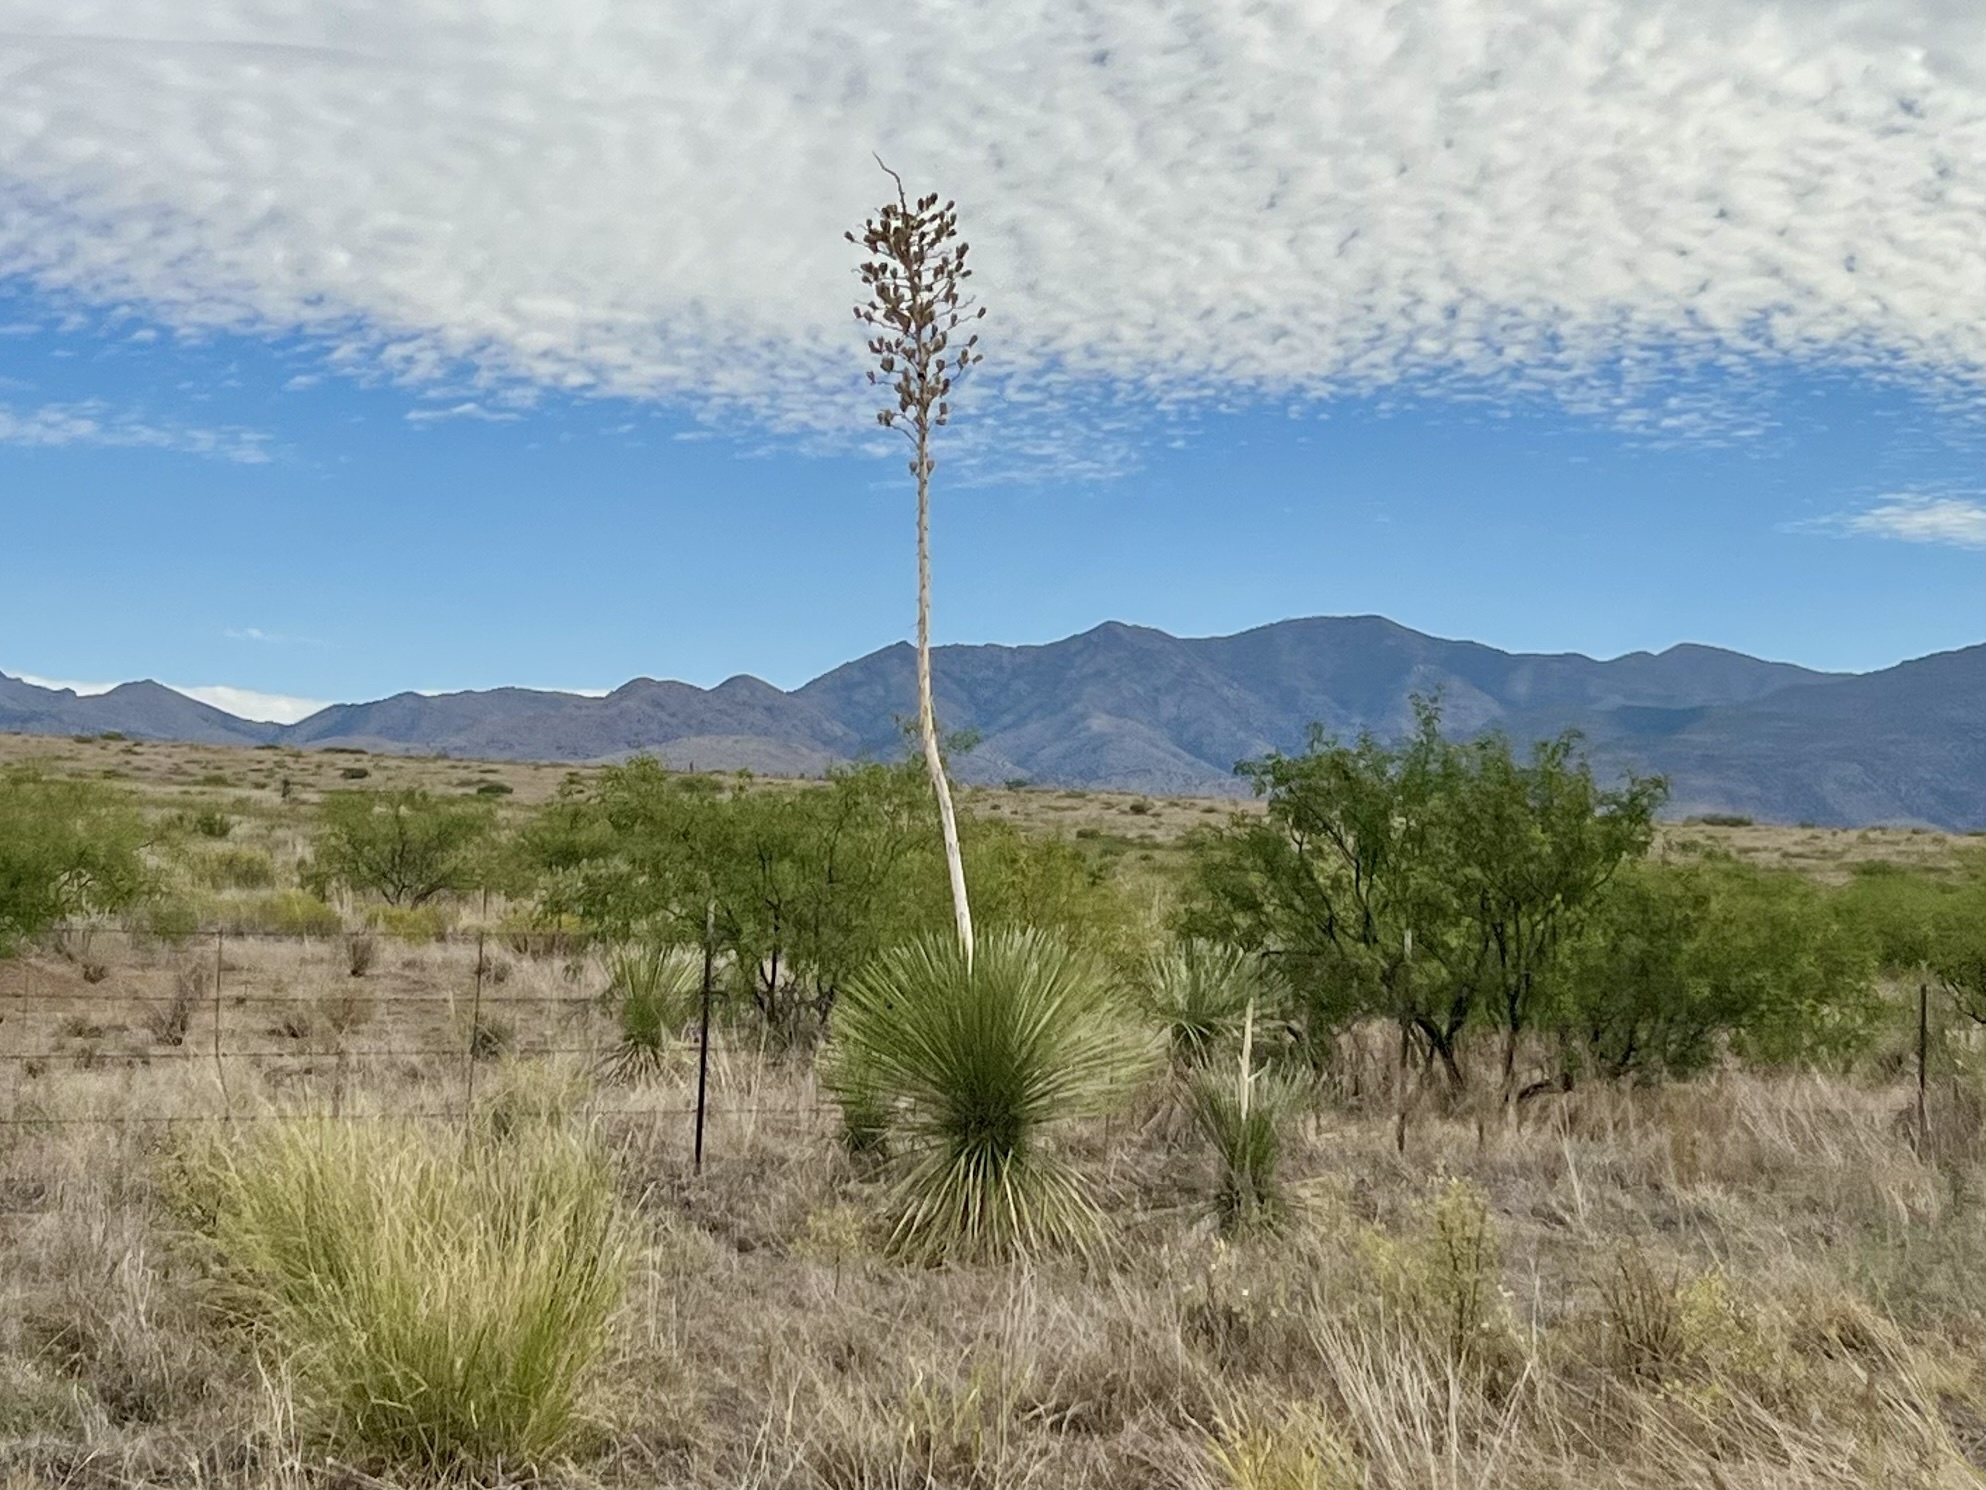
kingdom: Plantae
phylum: Tracheophyta
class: Liliopsida
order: Asparagales
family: Asparagaceae
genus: Yucca
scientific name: Yucca elata
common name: Palmella
